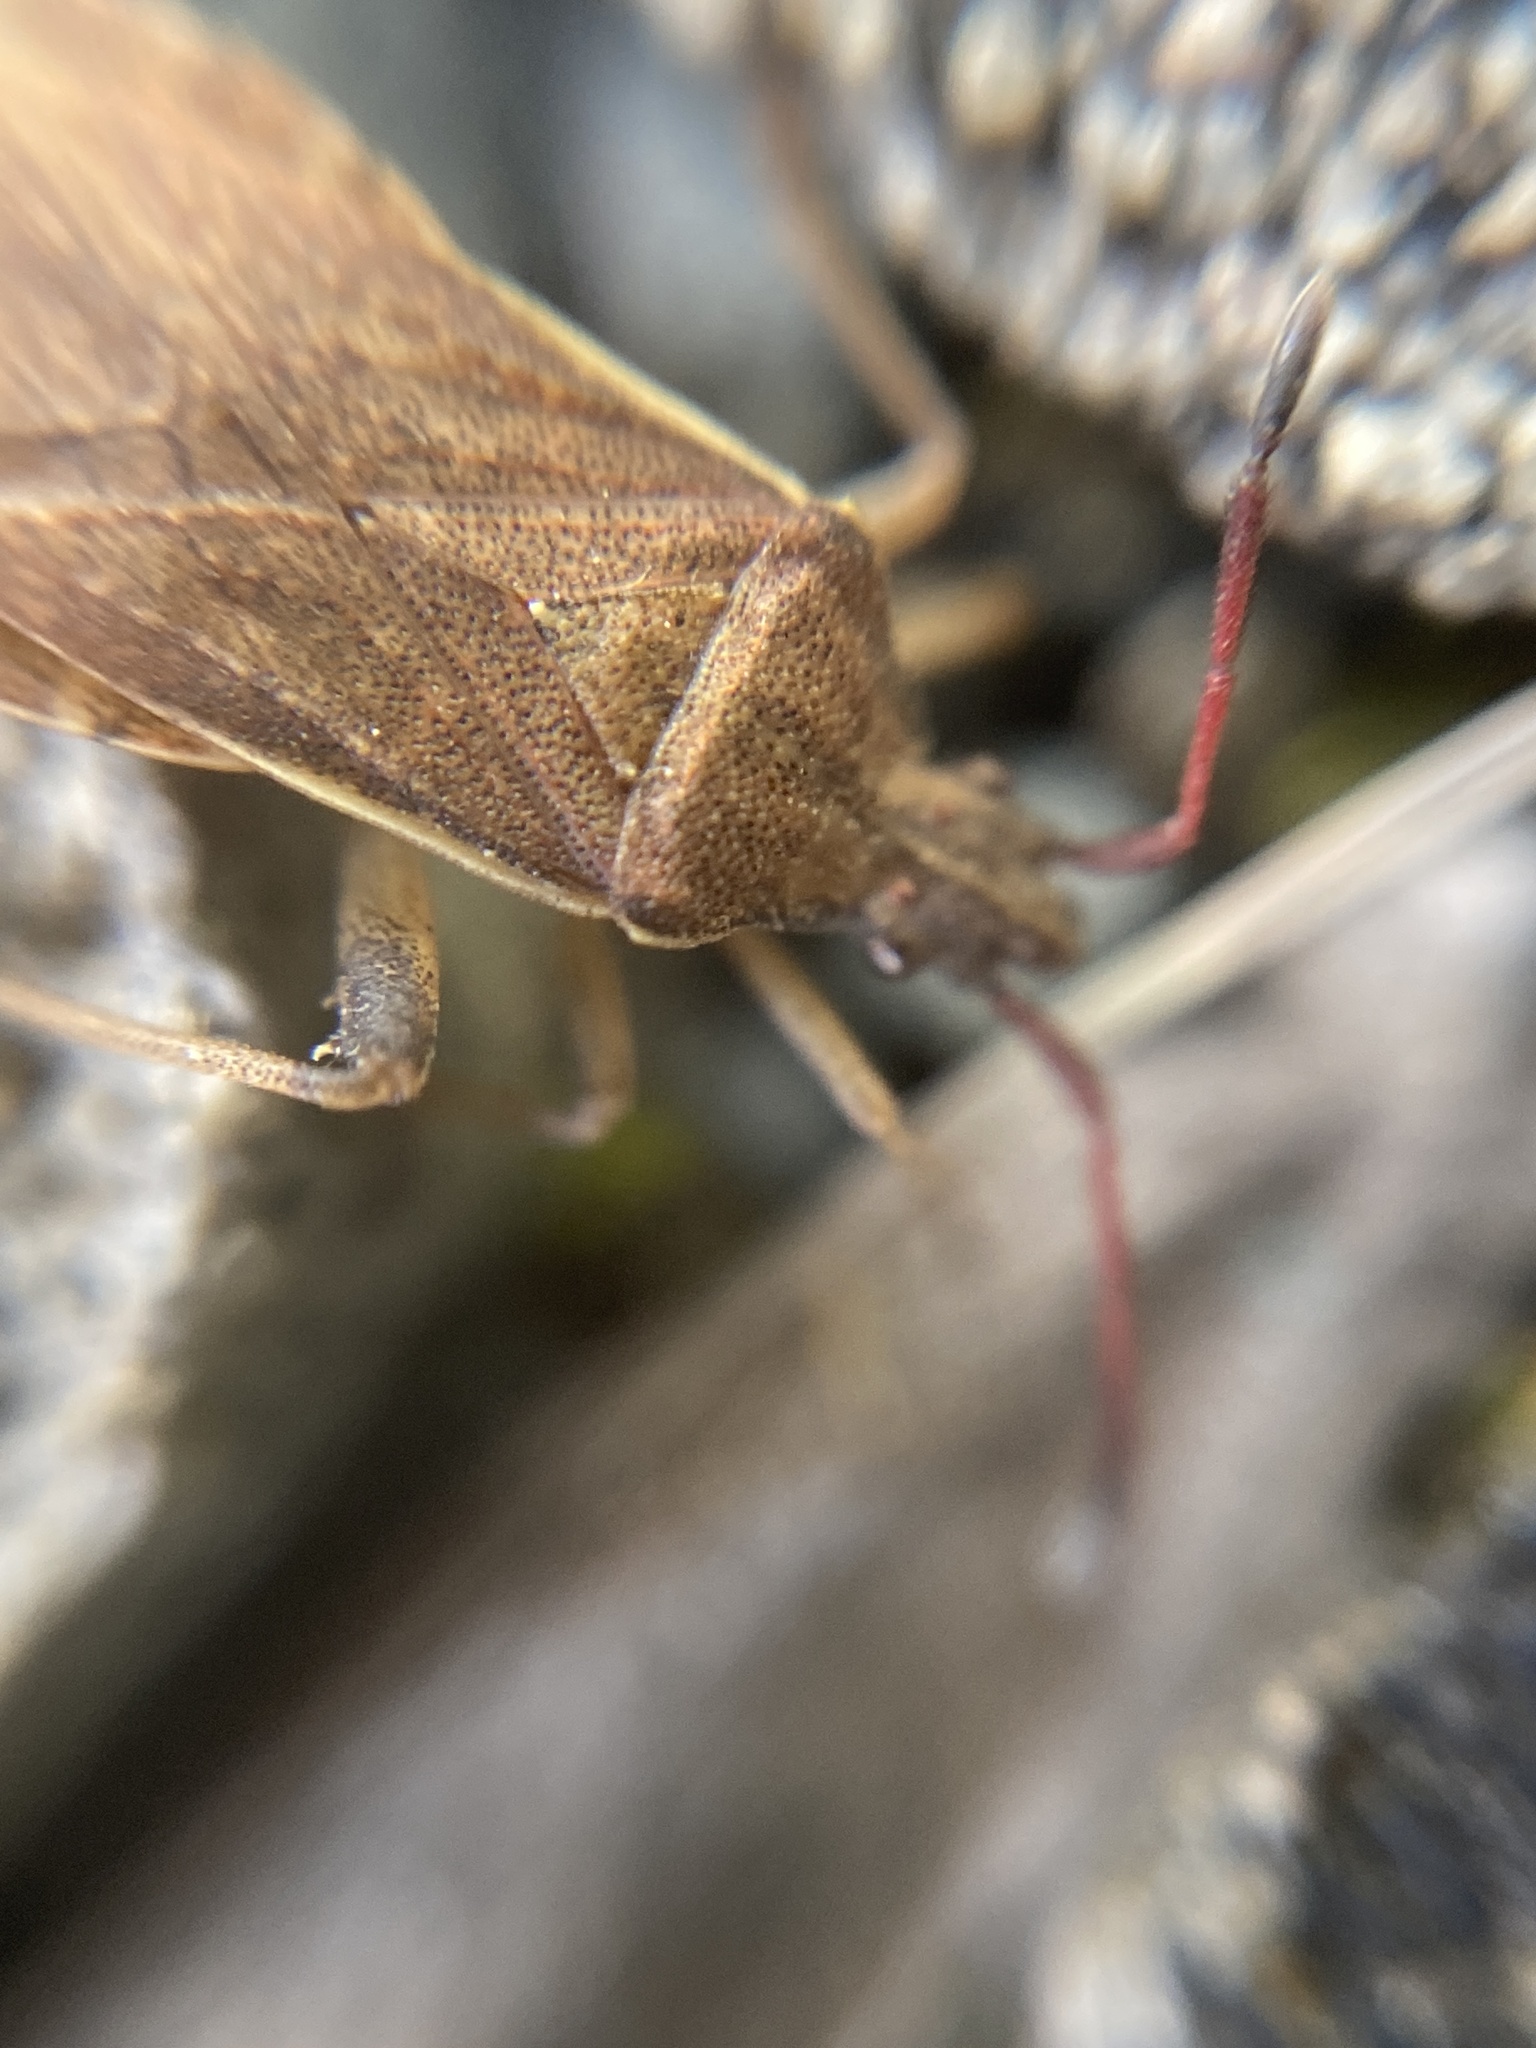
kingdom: Animalia
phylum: Arthropoda
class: Insecta
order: Hemiptera
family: Coreidae
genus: Ceraleptus
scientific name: Ceraleptus lividus
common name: Slender-horned leatherbug
